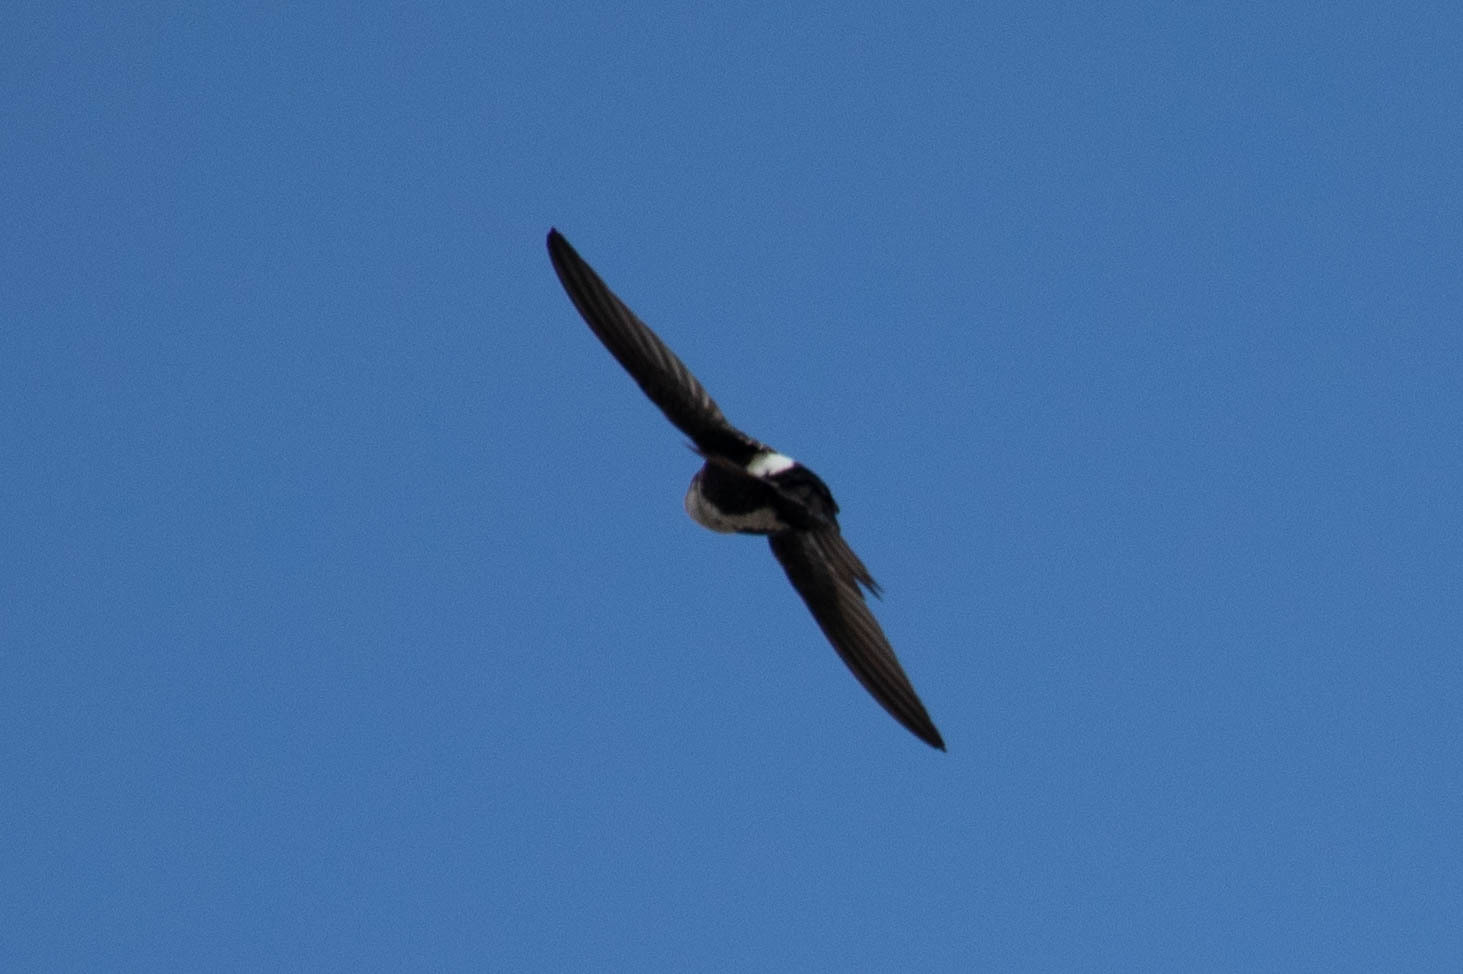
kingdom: Animalia
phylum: Chordata
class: Aves
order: Apodiformes
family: Apodidae
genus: Aeronautes
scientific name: Aeronautes saxatalis
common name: White-throated swift
